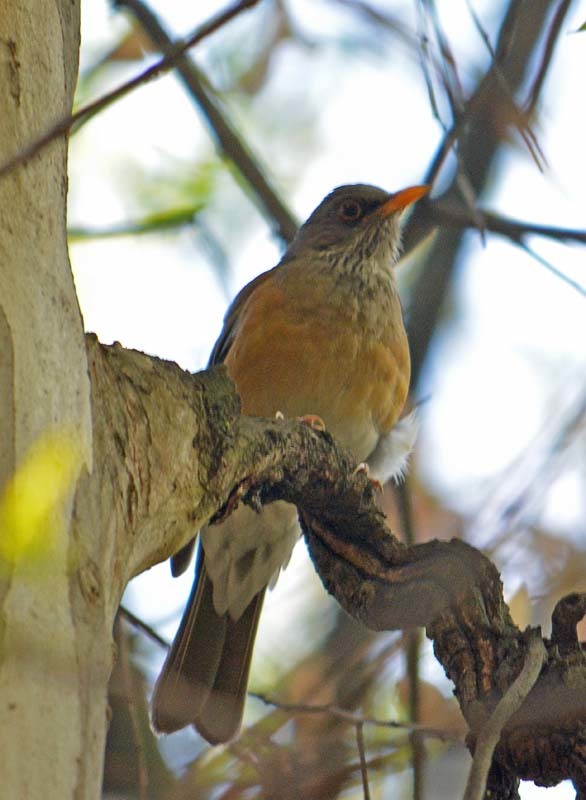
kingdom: Animalia
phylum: Chordata
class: Aves
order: Passeriformes
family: Turdidae
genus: Turdus
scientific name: Turdus rufopalliatus
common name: Rufous-backed robin
